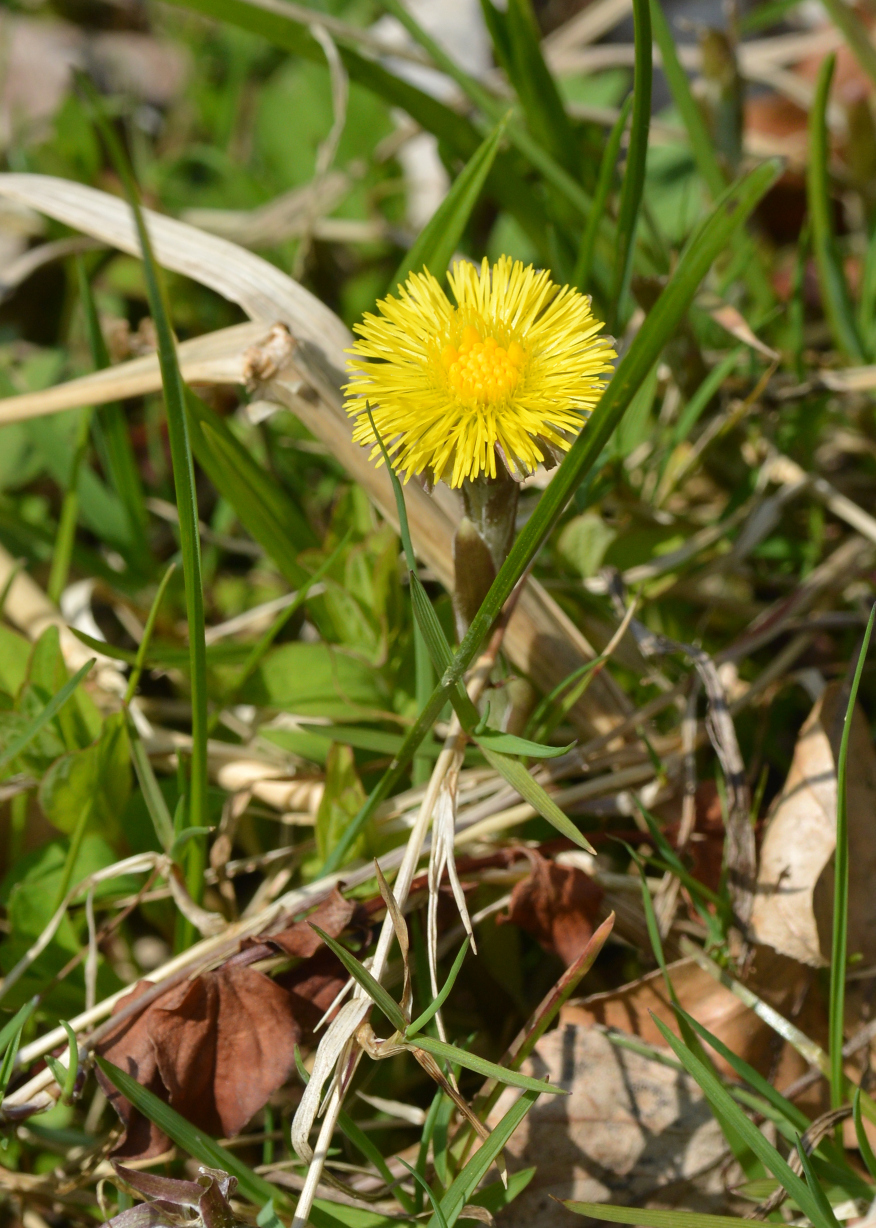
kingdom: Plantae
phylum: Tracheophyta
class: Magnoliopsida
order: Asterales
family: Asteraceae
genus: Tussilago
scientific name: Tussilago farfara
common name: Coltsfoot
